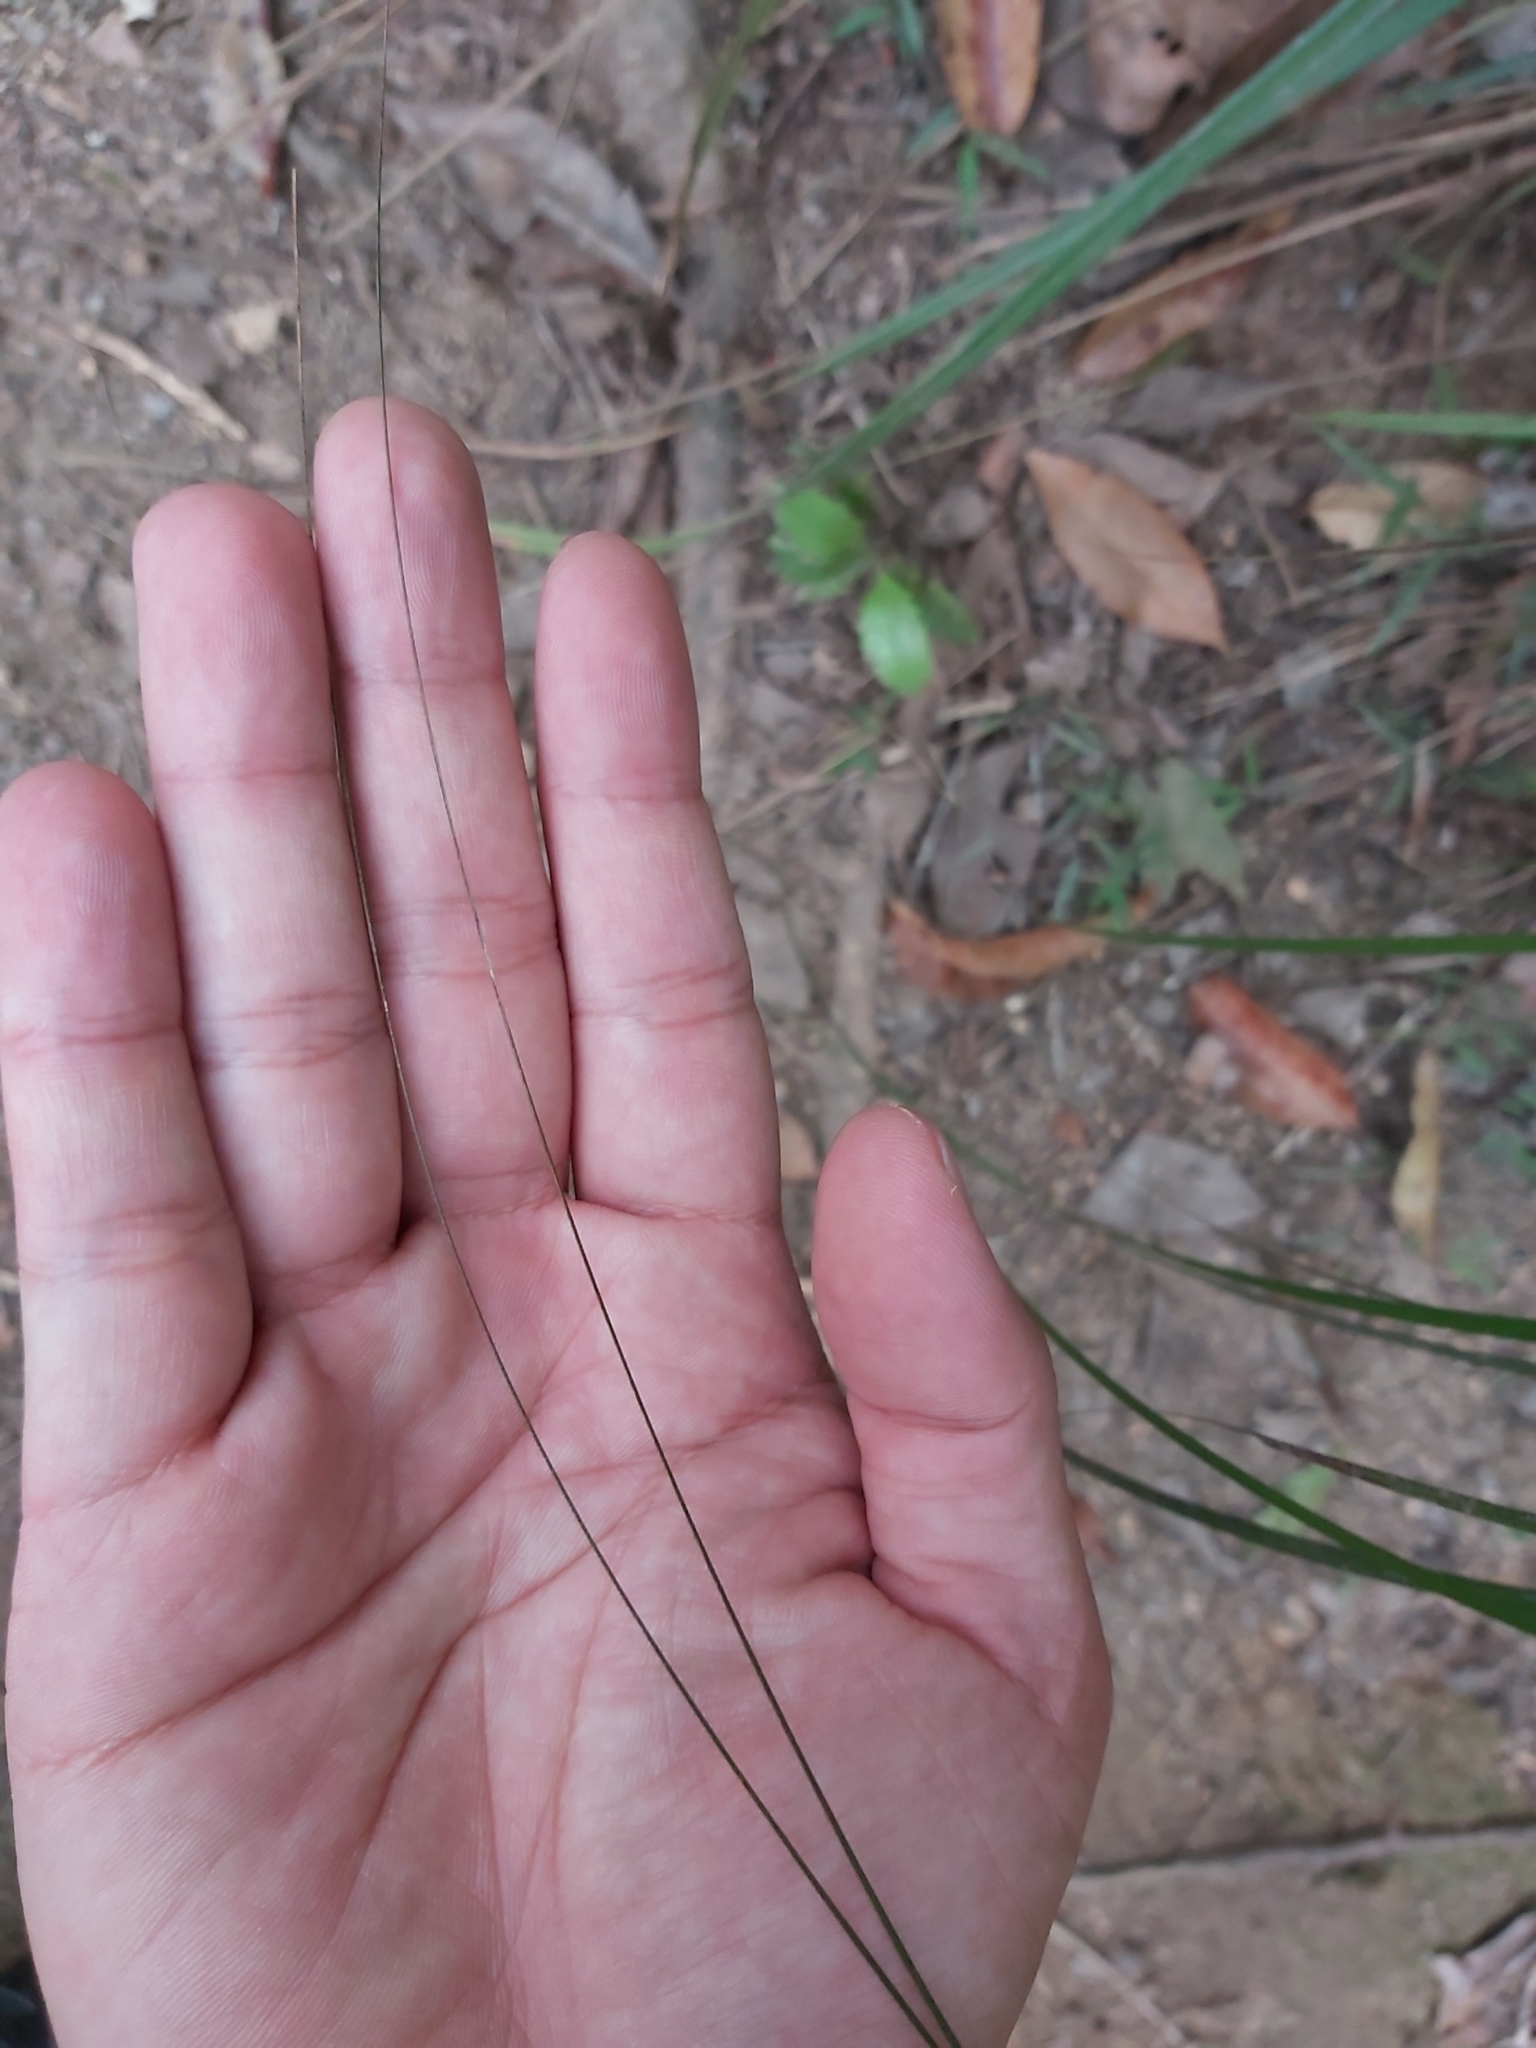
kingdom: Plantae
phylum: Tracheophyta
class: Liliopsida
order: Poales
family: Cyperaceae
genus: Gahnia
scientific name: Gahnia aspera
